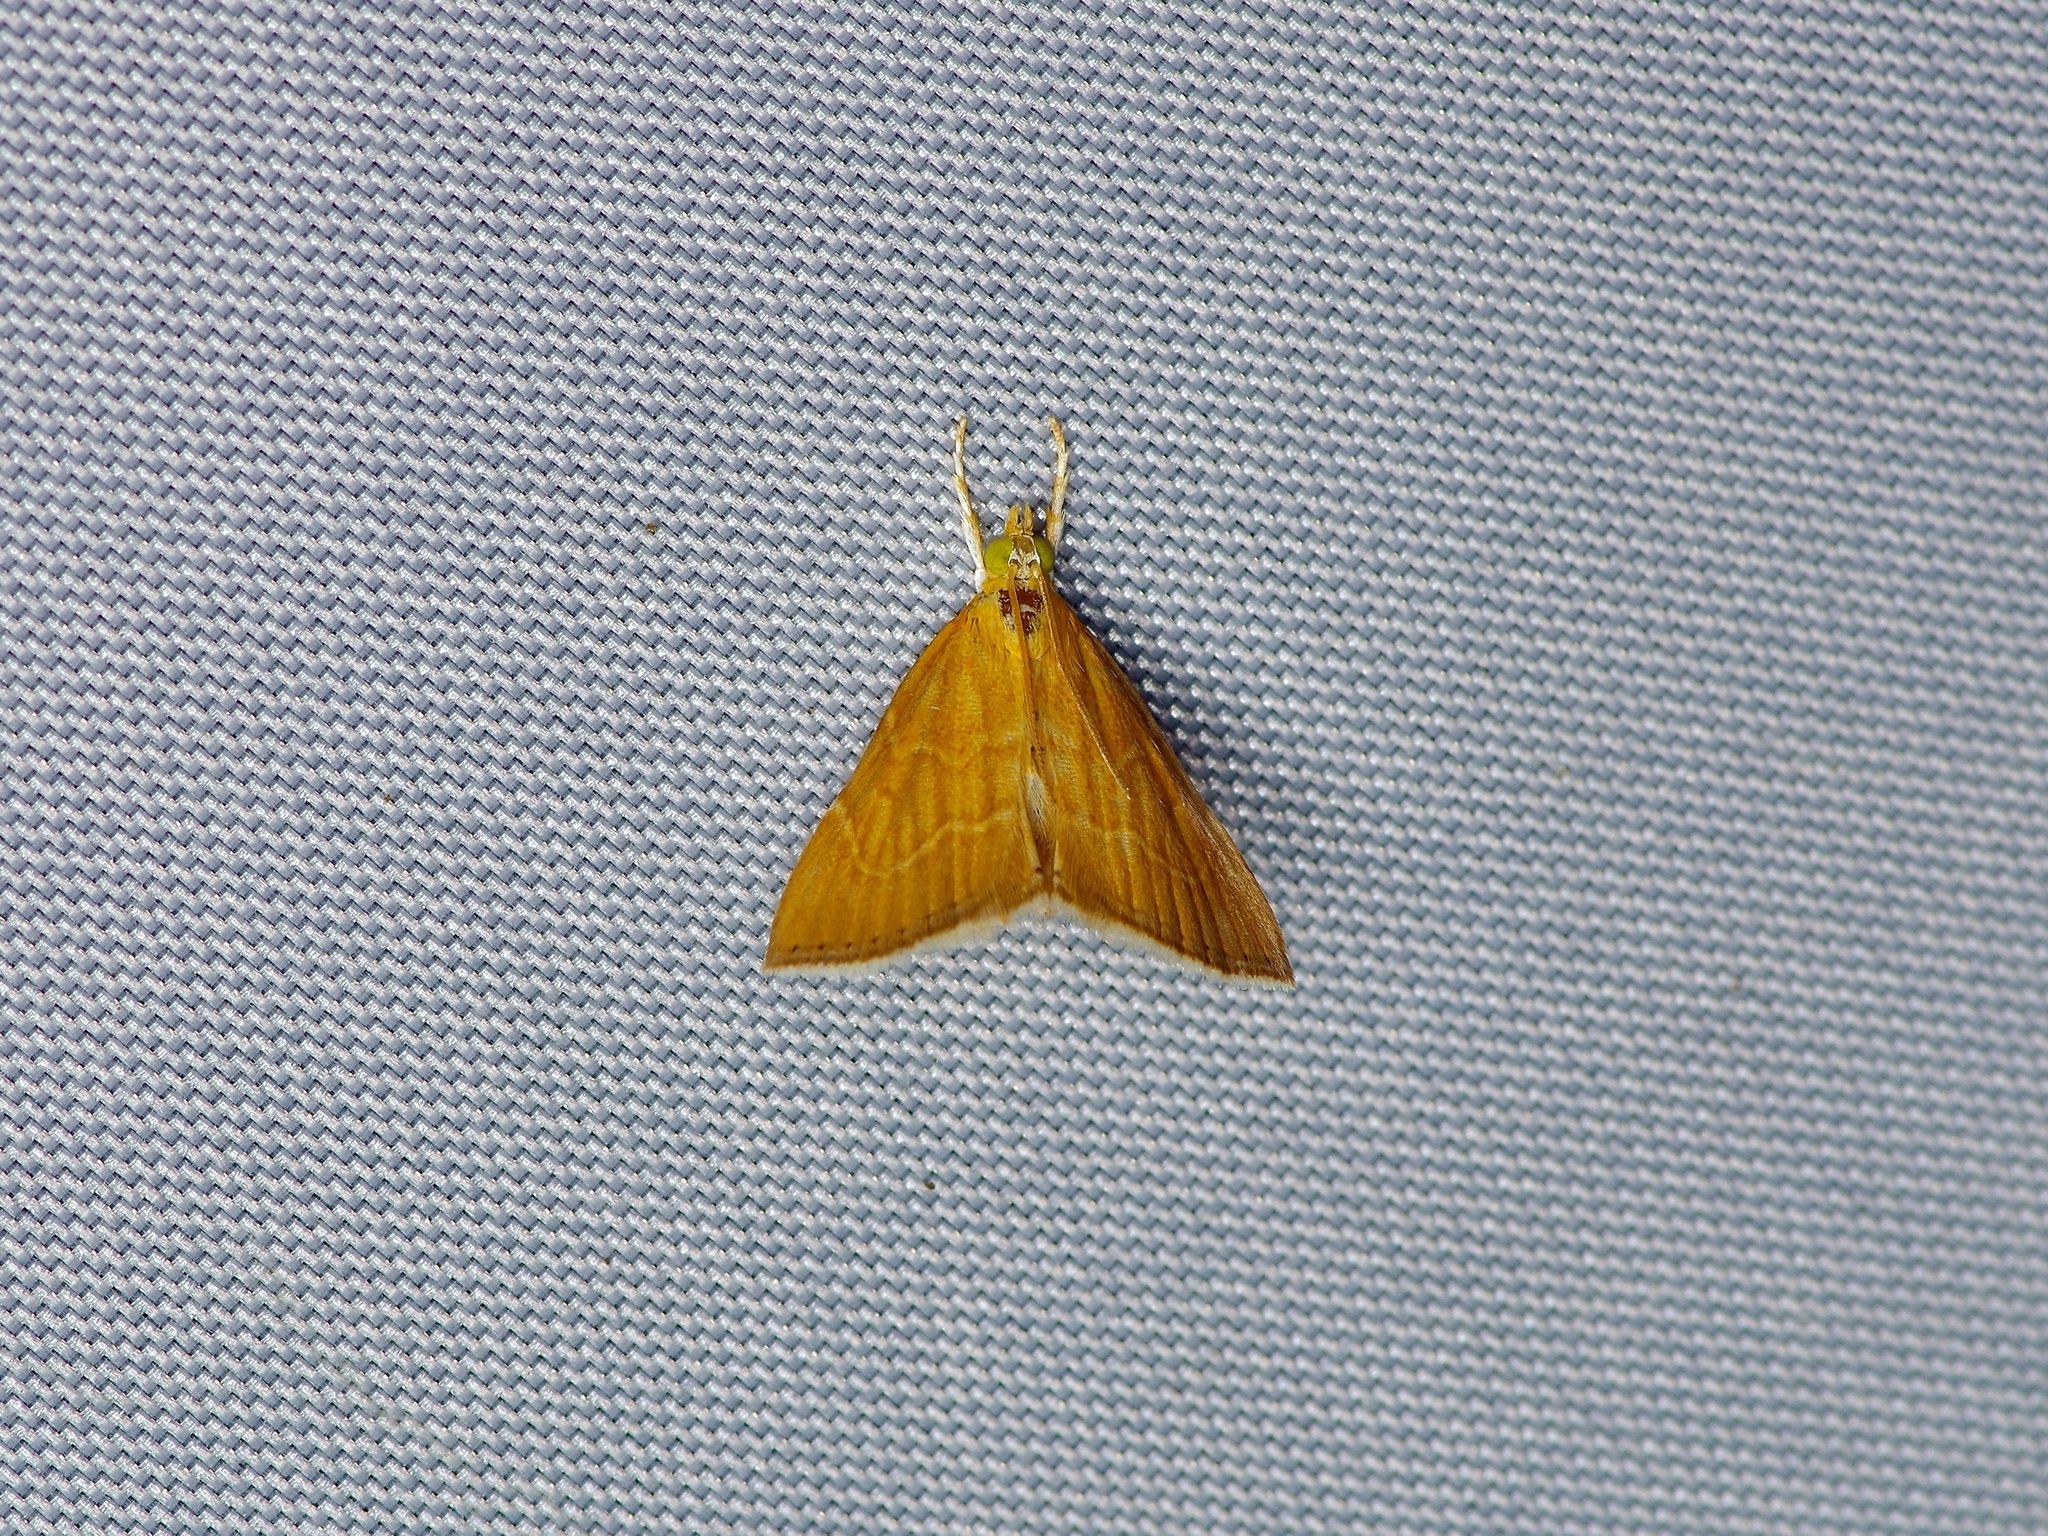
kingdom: Animalia
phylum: Arthropoda
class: Insecta
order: Lepidoptera
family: Crambidae
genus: Glaphyria
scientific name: Glaphyria invisalis
